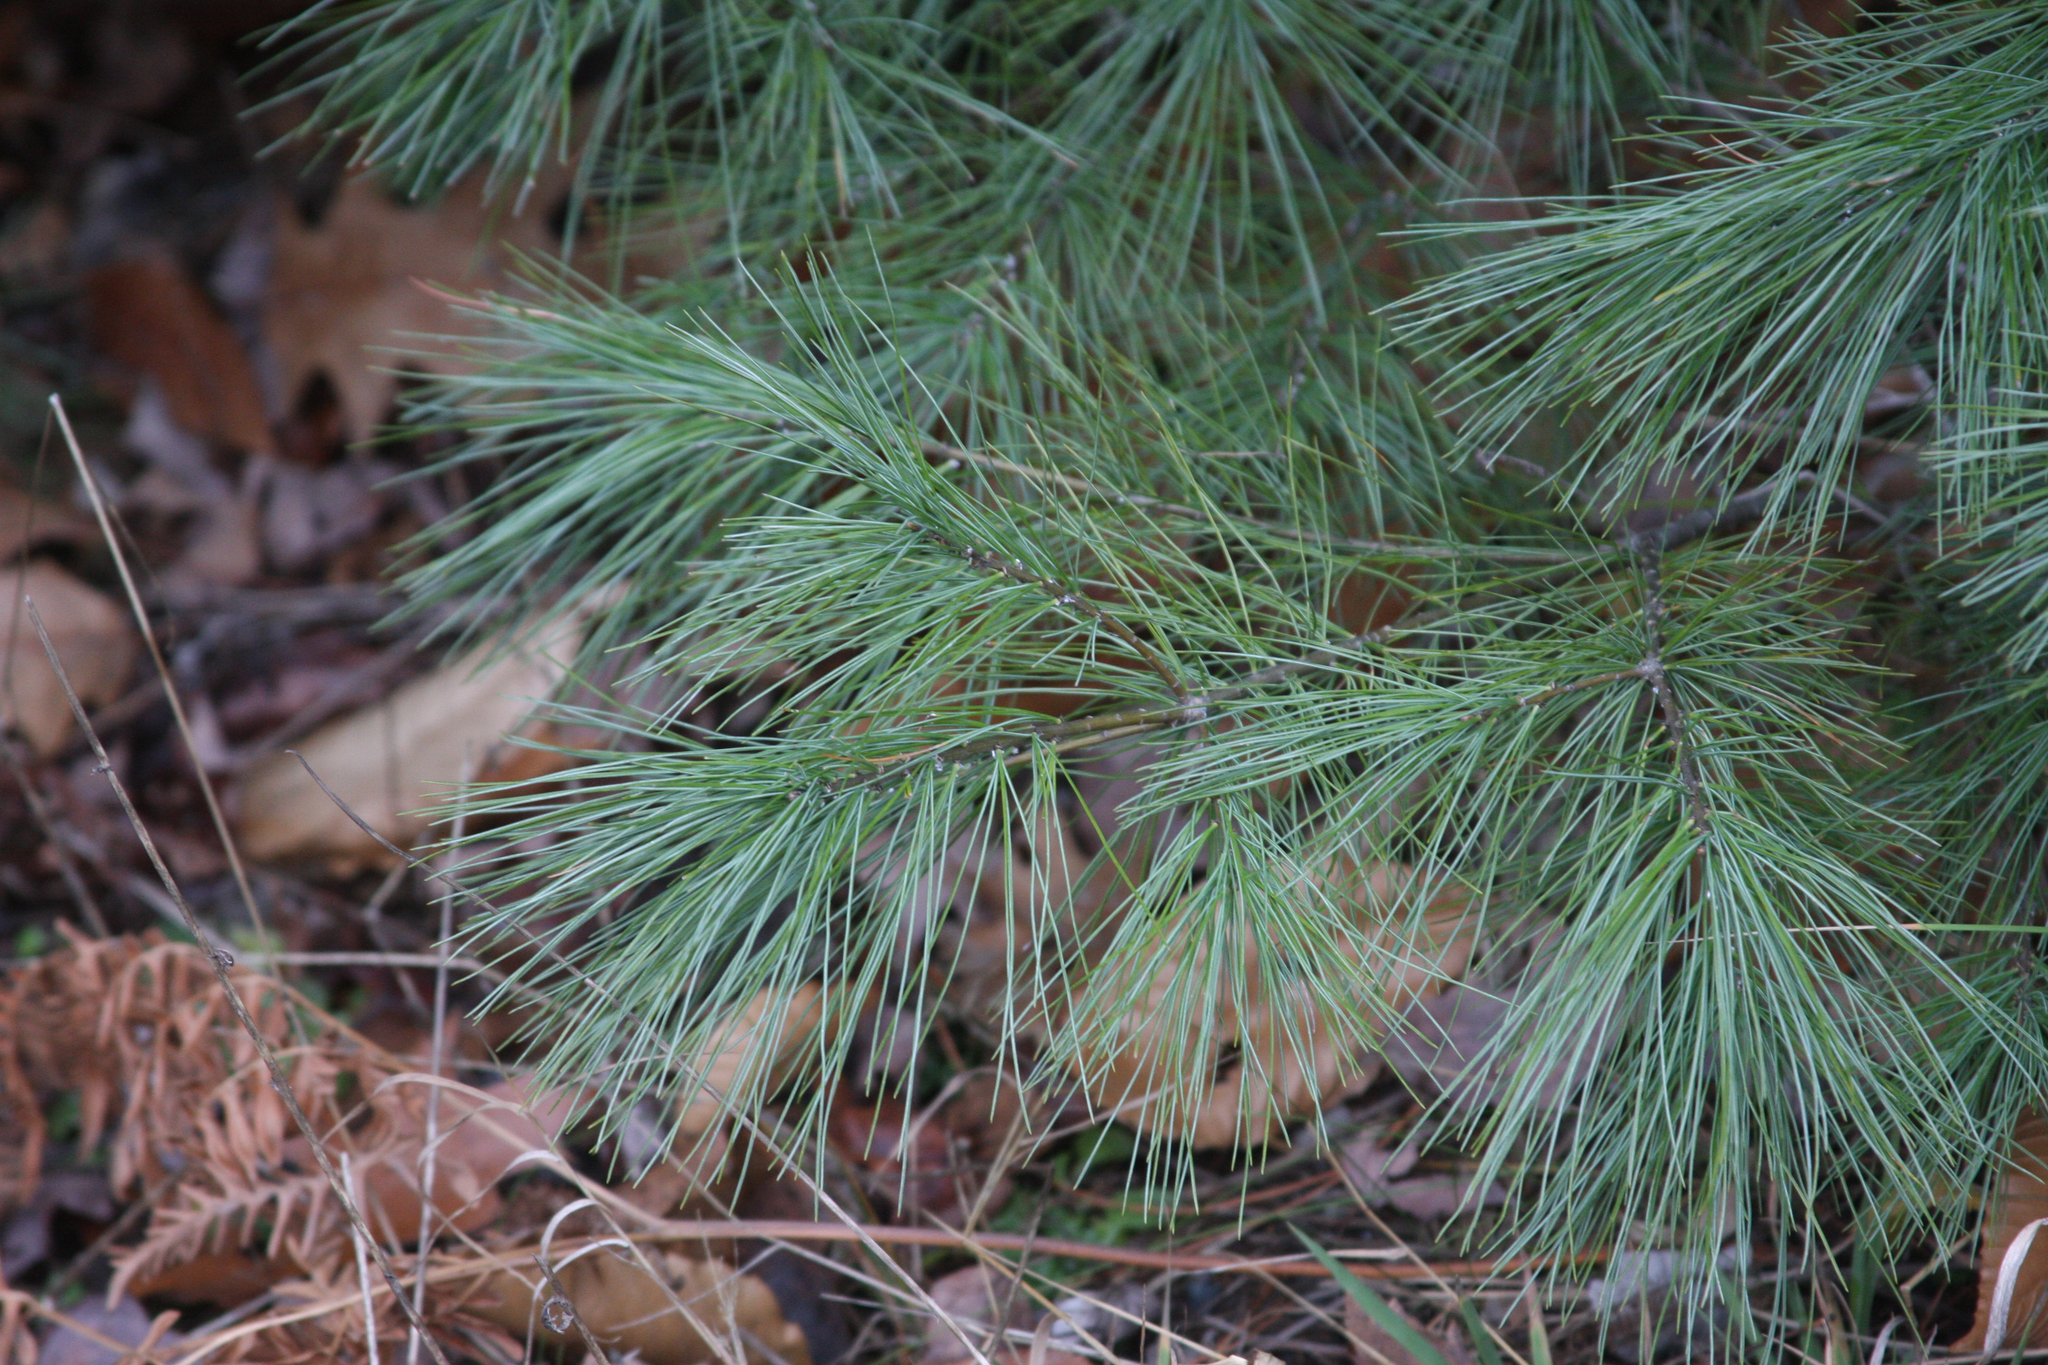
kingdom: Plantae
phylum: Tracheophyta
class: Pinopsida
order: Pinales
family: Pinaceae
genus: Pinus
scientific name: Pinus strobus
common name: Weymouth pine
